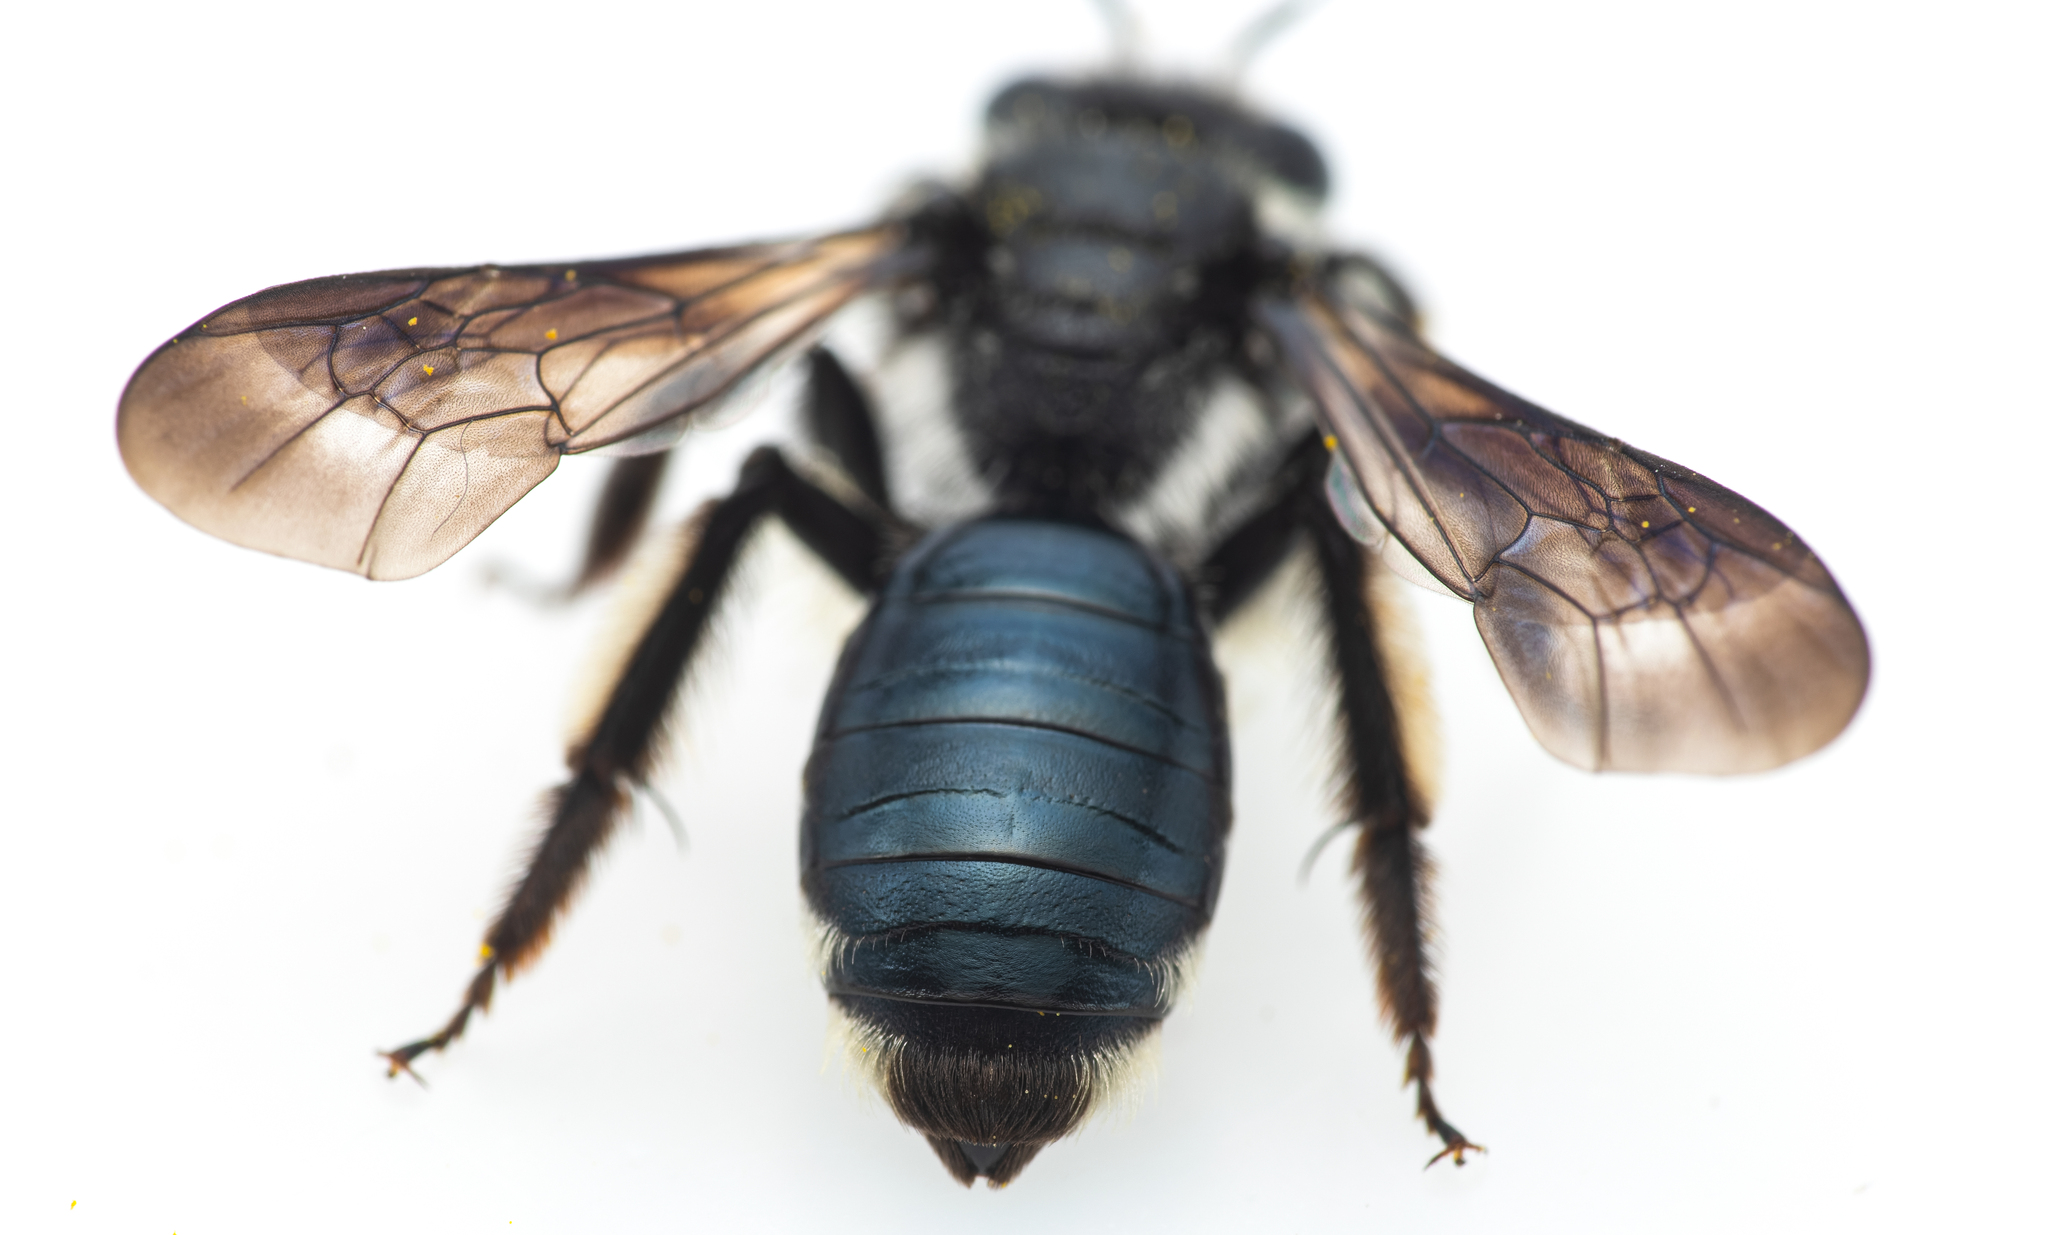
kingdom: Animalia
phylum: Arthropoda
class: Insecta
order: Hymenoptera
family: Andrenidae
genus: Andrena
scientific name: Andrena agilissima
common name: Violet-winged mining bee
